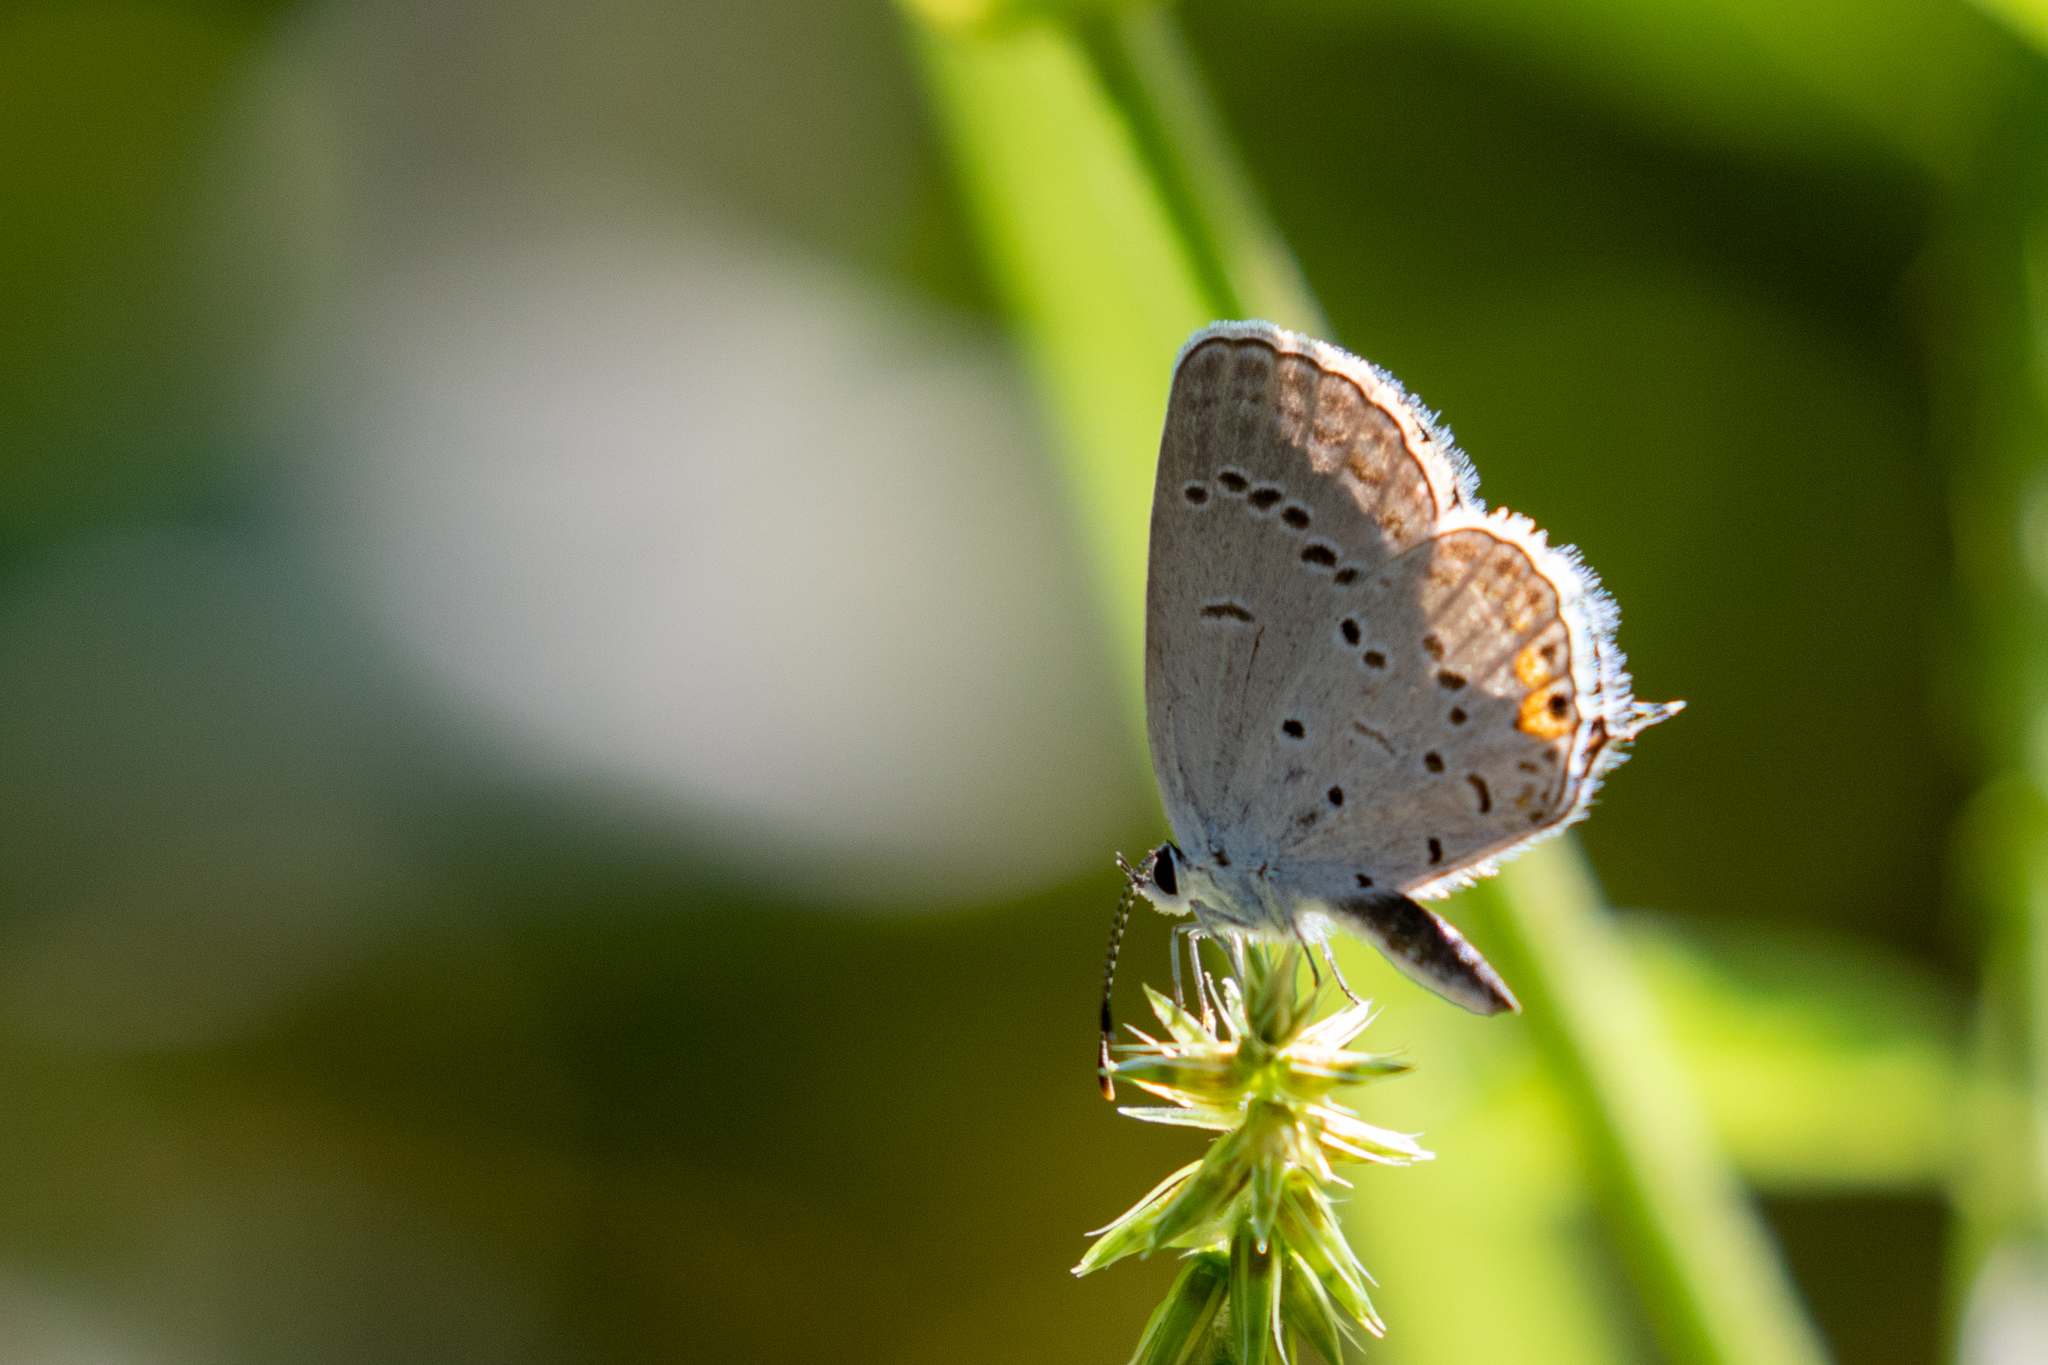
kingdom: Animalia
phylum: Arthropoda
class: Insecta
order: Lepidoptera
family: Lycaenidae
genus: Elkalyce
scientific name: Elkalyce comyntas
